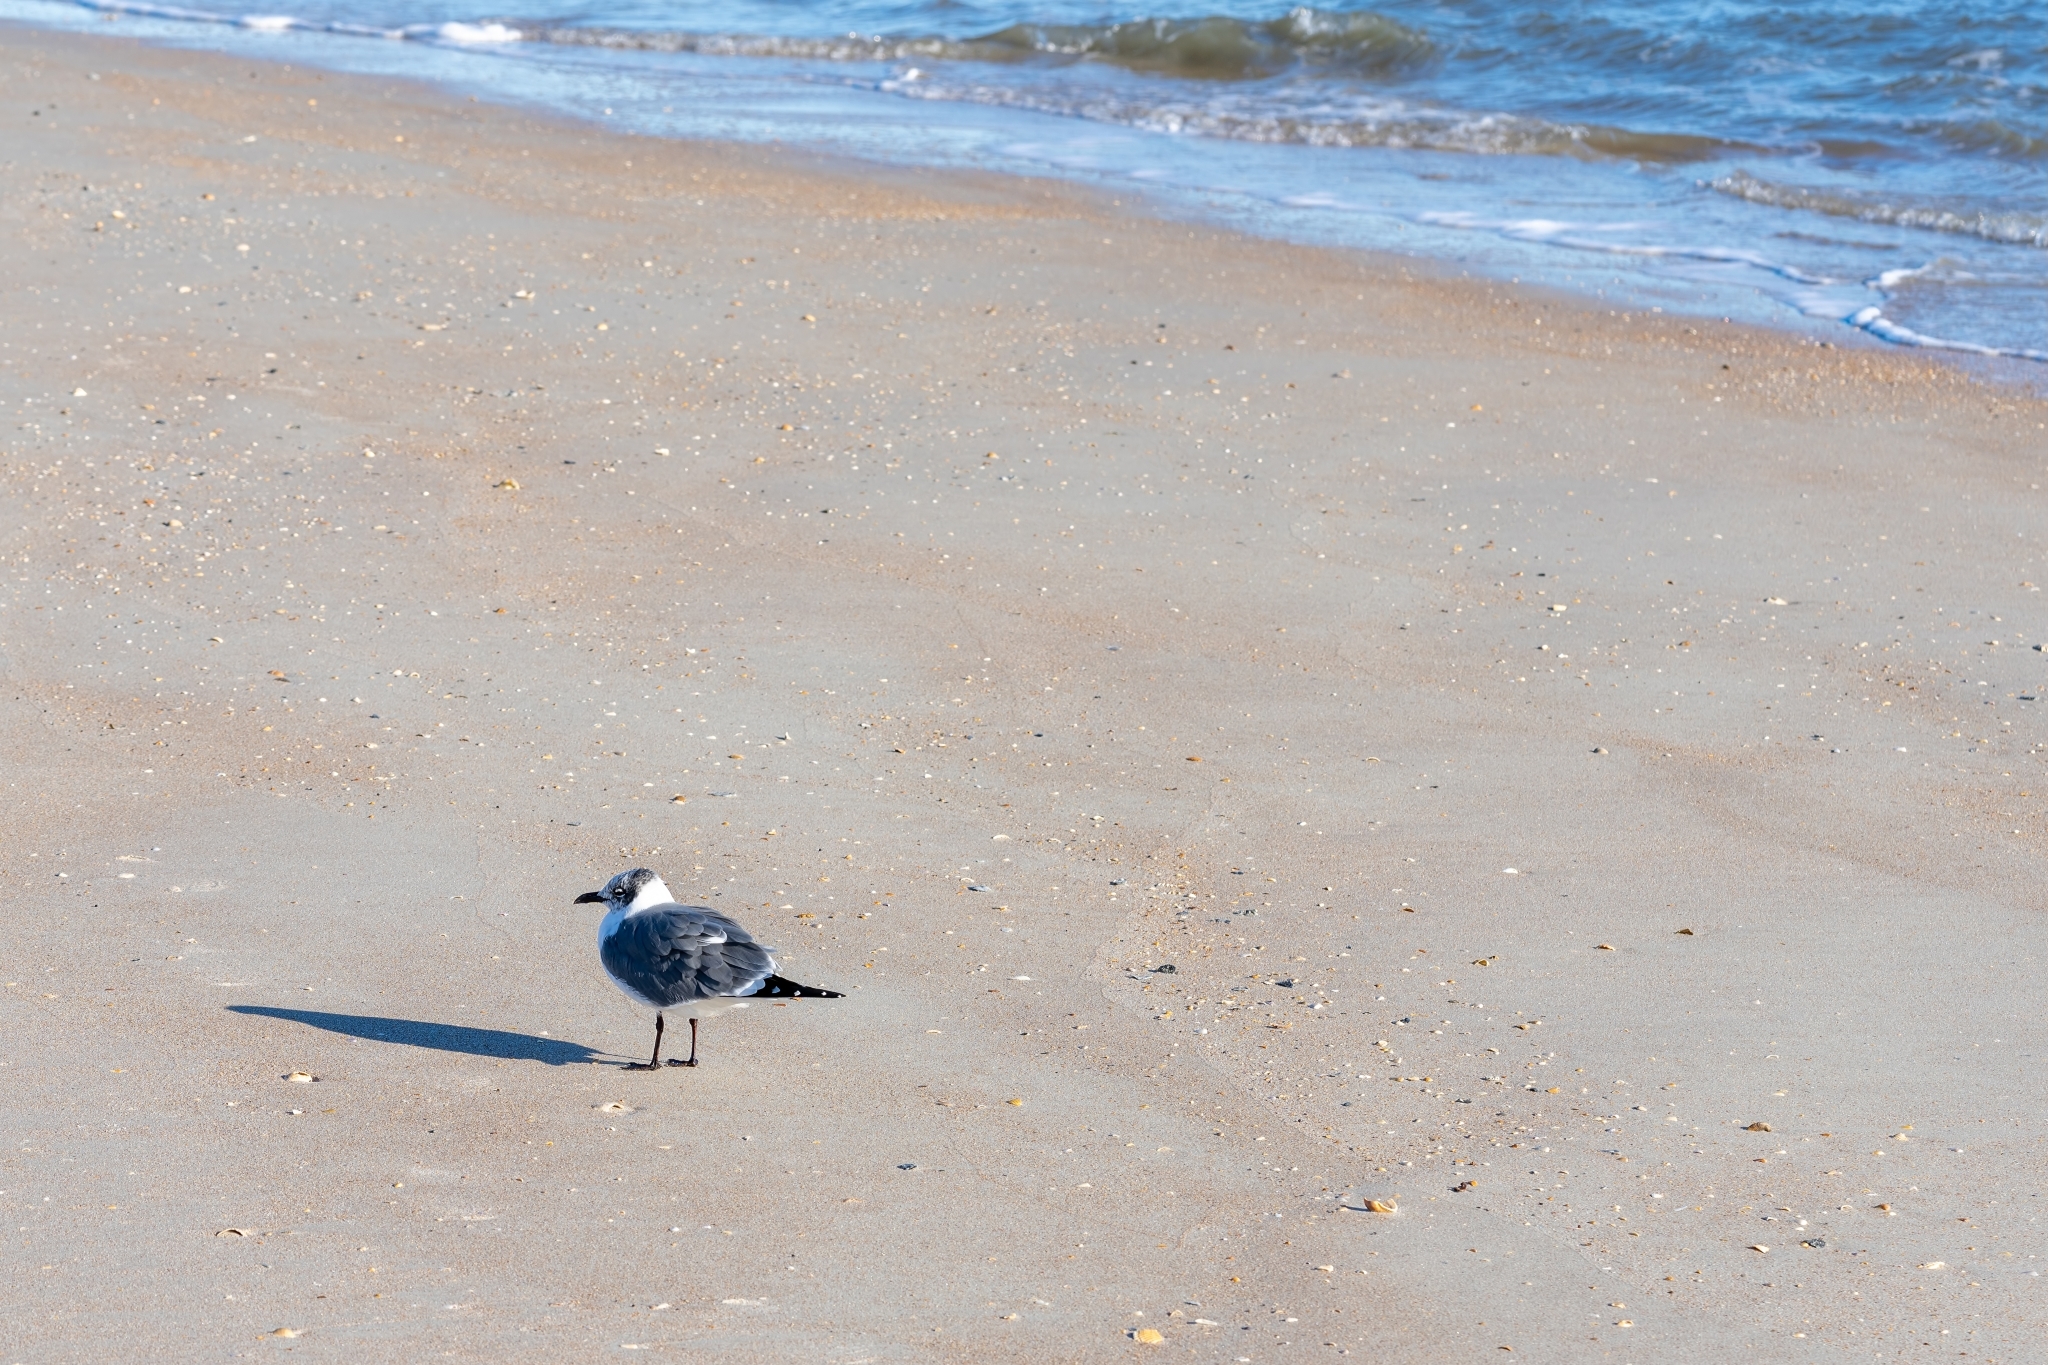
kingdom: Animalia
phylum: Chordata
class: Aves
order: Charadriiformes
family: Laridae
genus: Leucophaeus
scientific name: Leucophaeus atricilla
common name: Laughing gull
